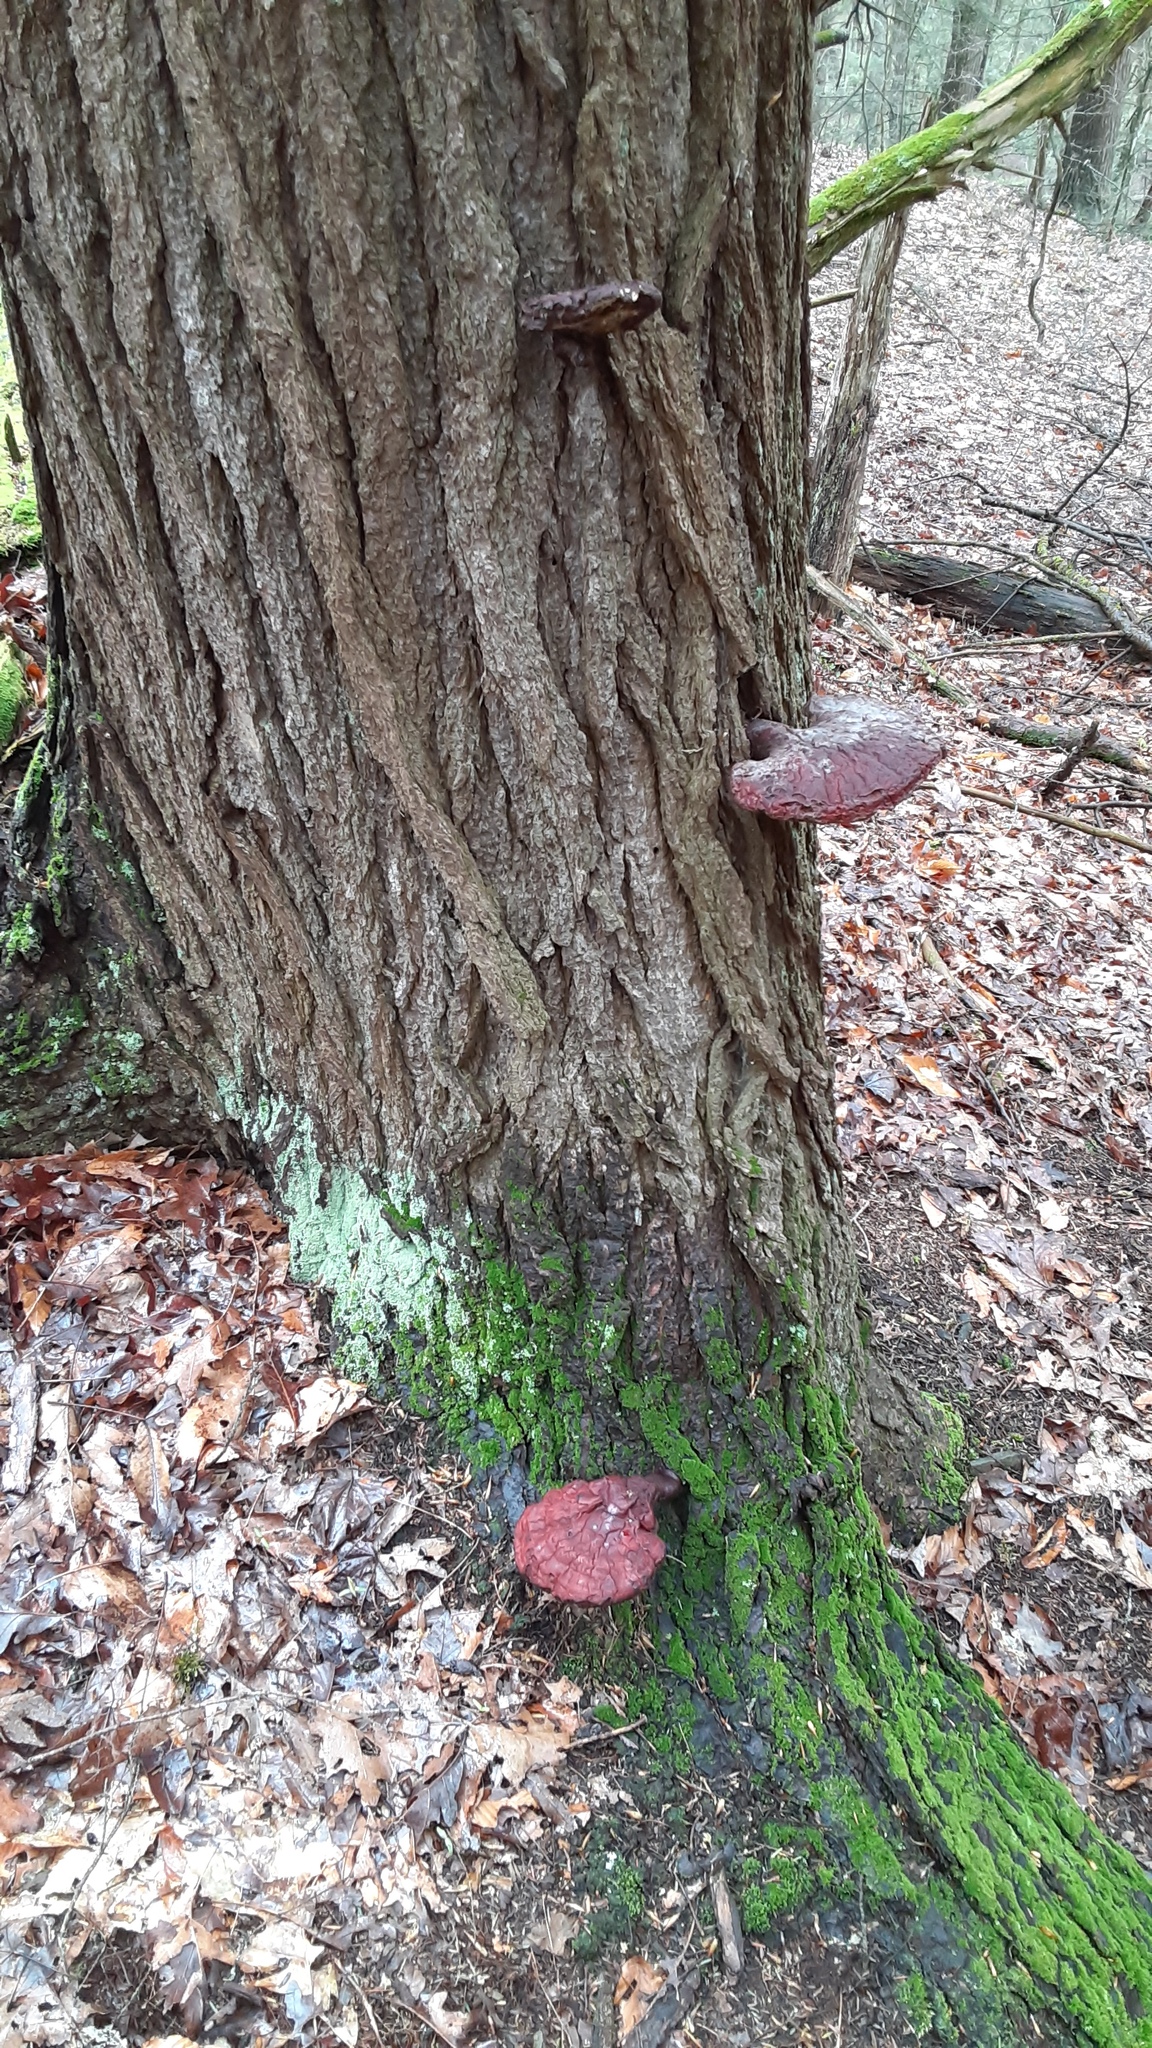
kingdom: Fungi
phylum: Basidiomycota
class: Agaricomycetes
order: Polyporales
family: Polyporaceae
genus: Ganoderma
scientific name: Ganoderma tsugae
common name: Hemlock varnish shelf
